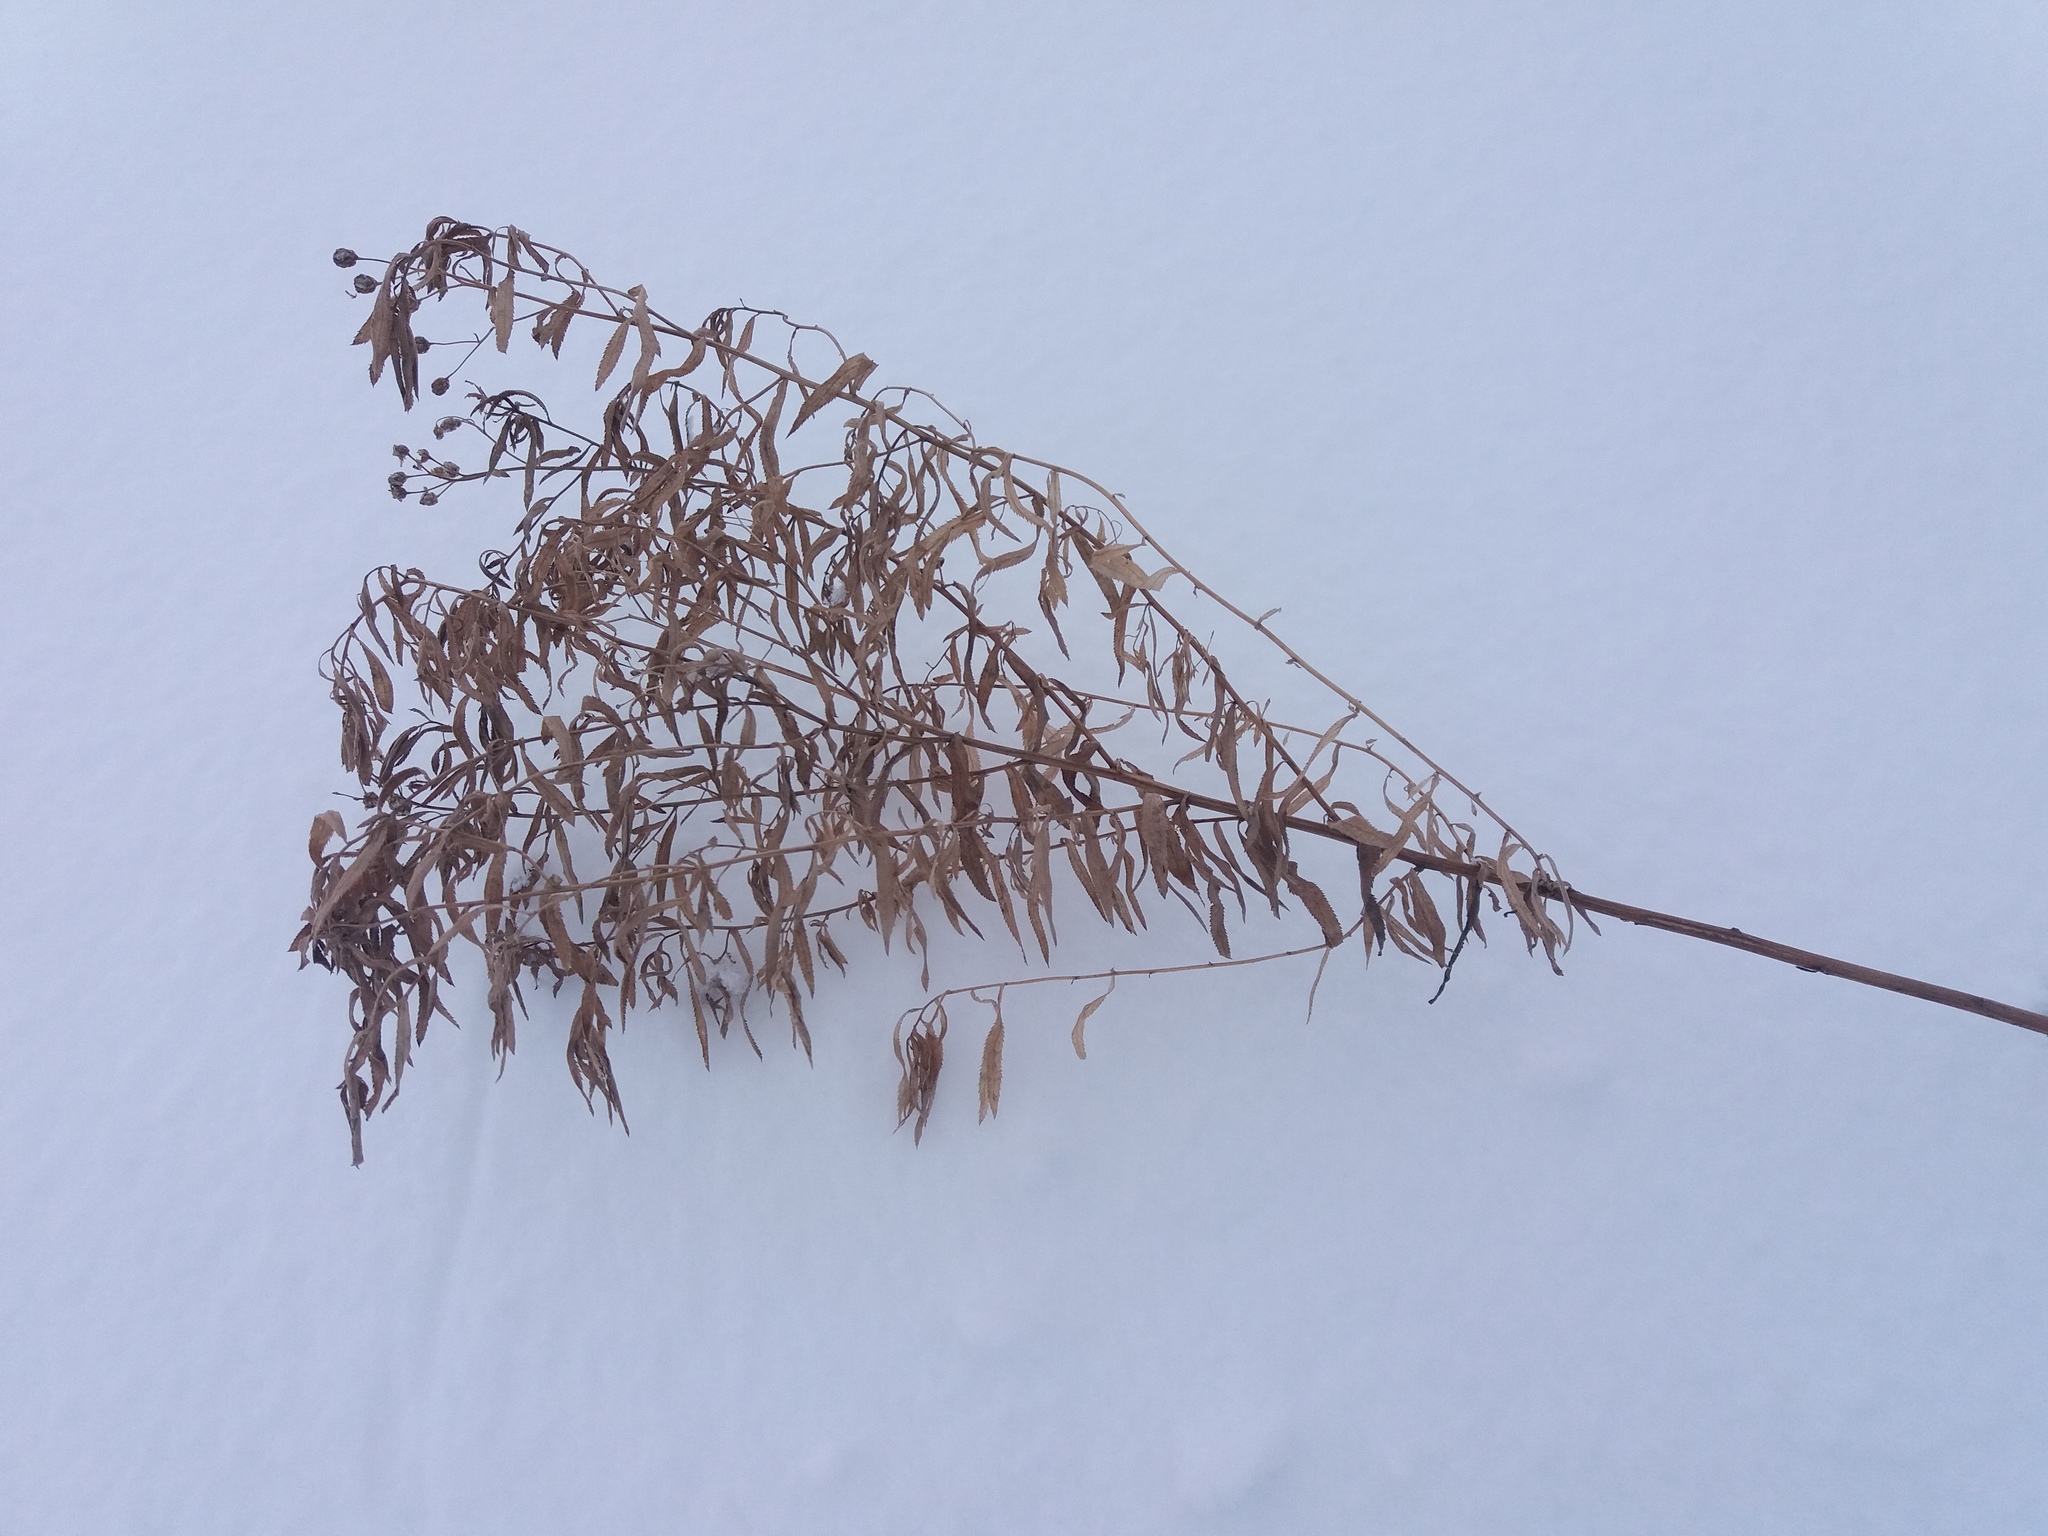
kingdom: Plantae
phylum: Tracheophyta
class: Magnoliopsida
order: Myrtales
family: Lythraceae
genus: Lythrum
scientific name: Lythrum salicaria
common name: Purple loosestrife
